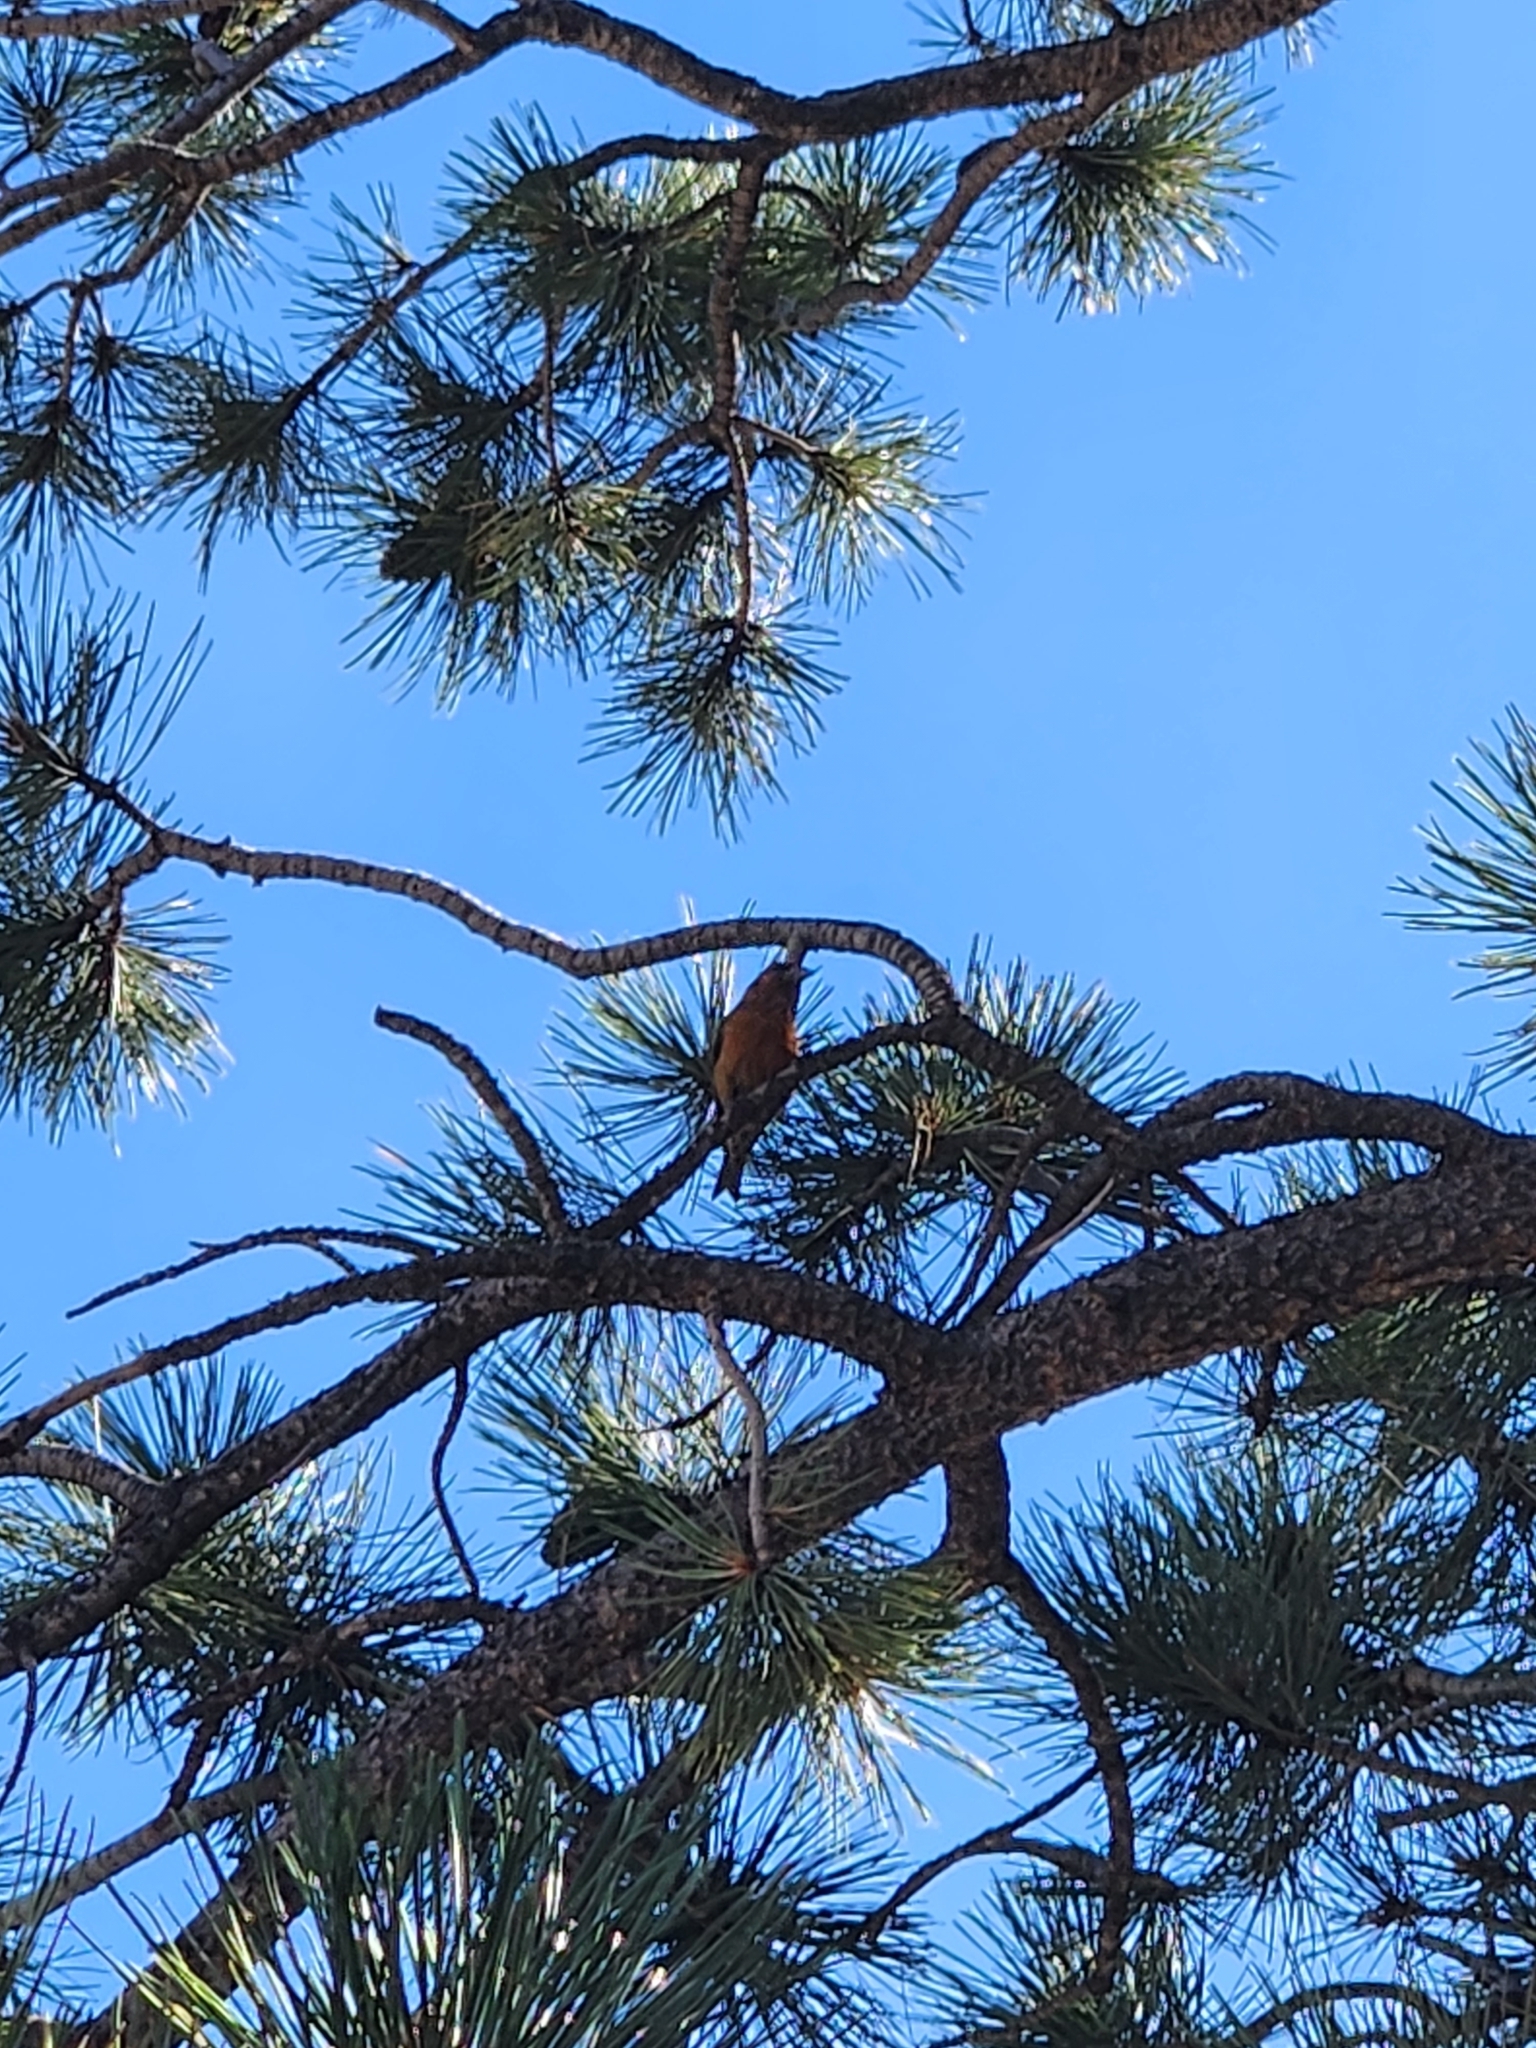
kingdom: Animalia
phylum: Chordata
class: Aves
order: Passeriformes
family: Fringillidae
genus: Loxia
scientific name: Loxia curvirostra
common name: Red crossbill
